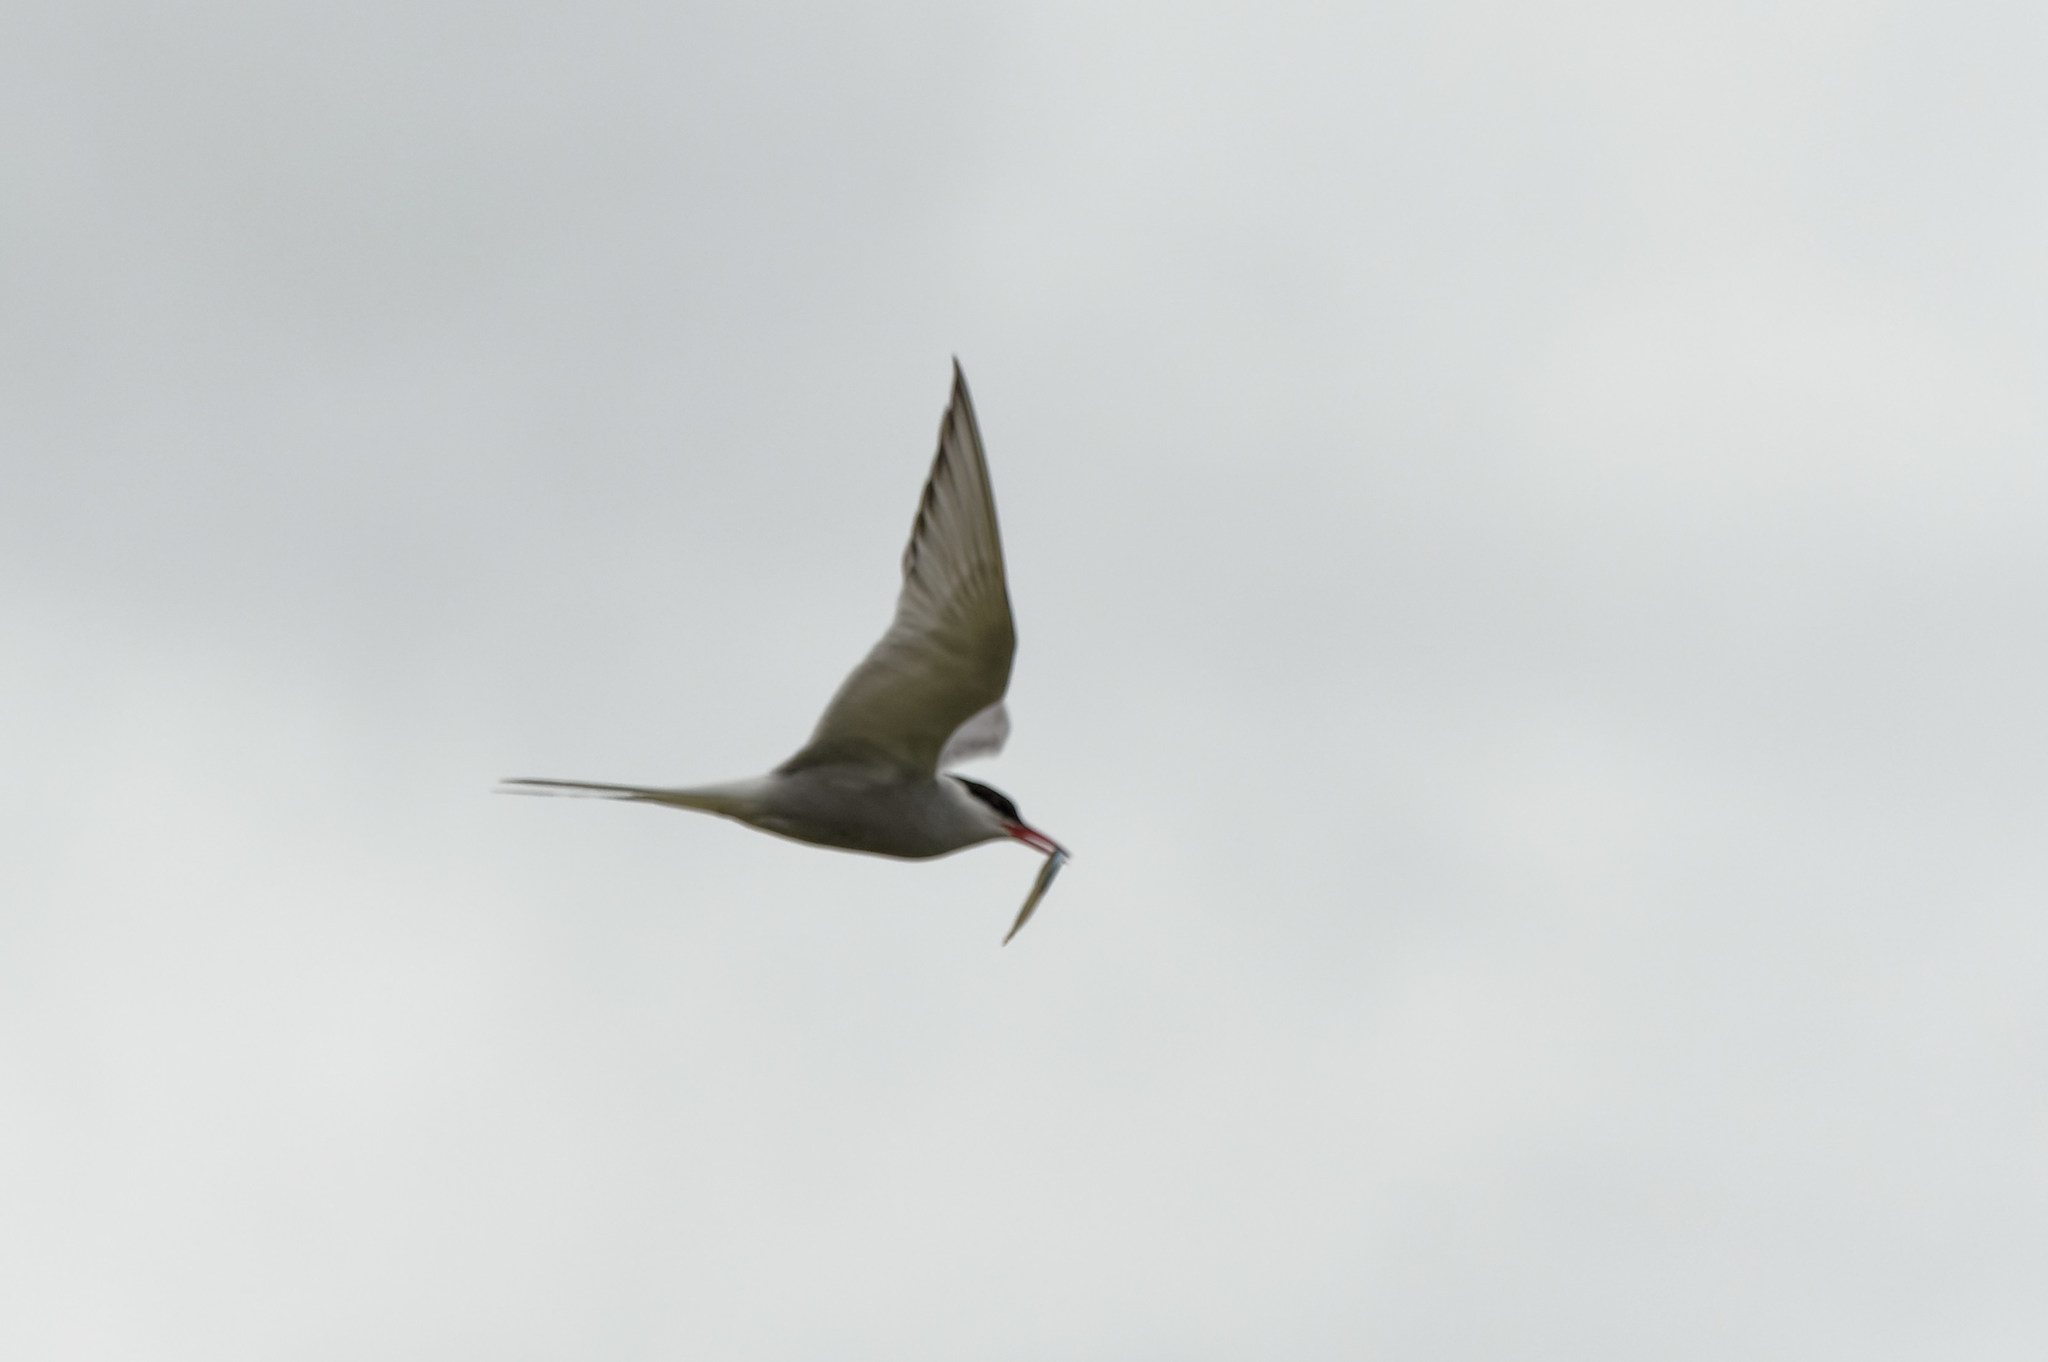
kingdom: Animalia
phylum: Chordata
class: Aves
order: Charadriiformes
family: Laridae
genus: Sterna
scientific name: Sterna paradisaea
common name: Arctic tern
